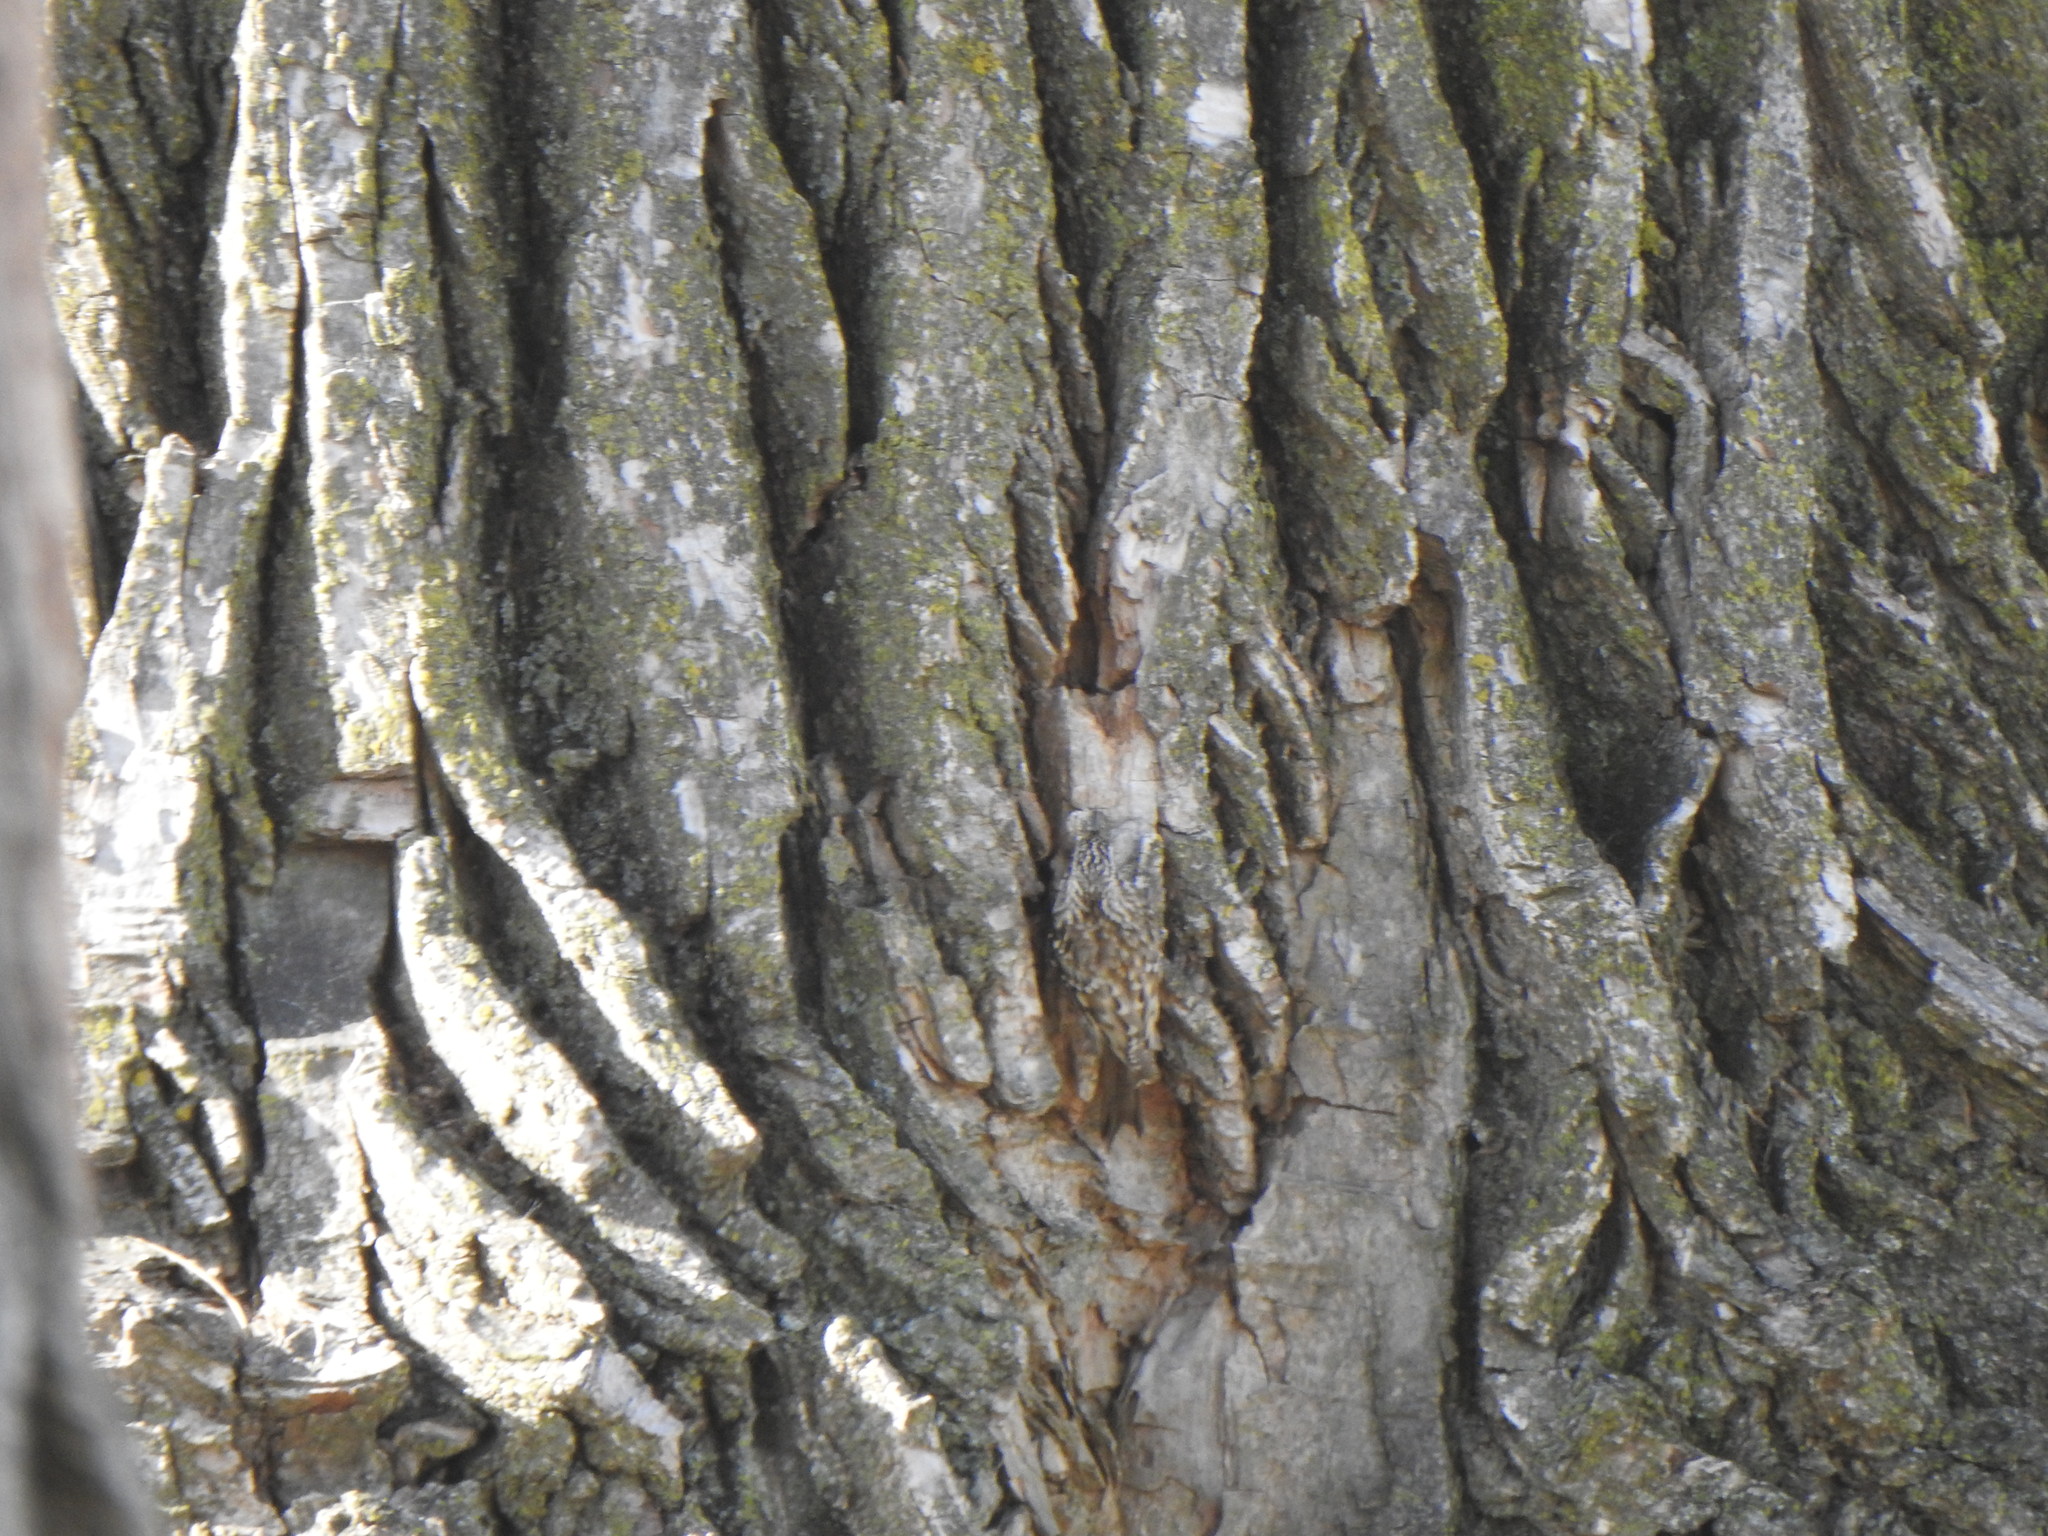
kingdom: Animalia
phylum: Chordata
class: Aves
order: Passeriformes
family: Certhiidae
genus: Certhia
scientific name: Certhia americana
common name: Brown creeper
